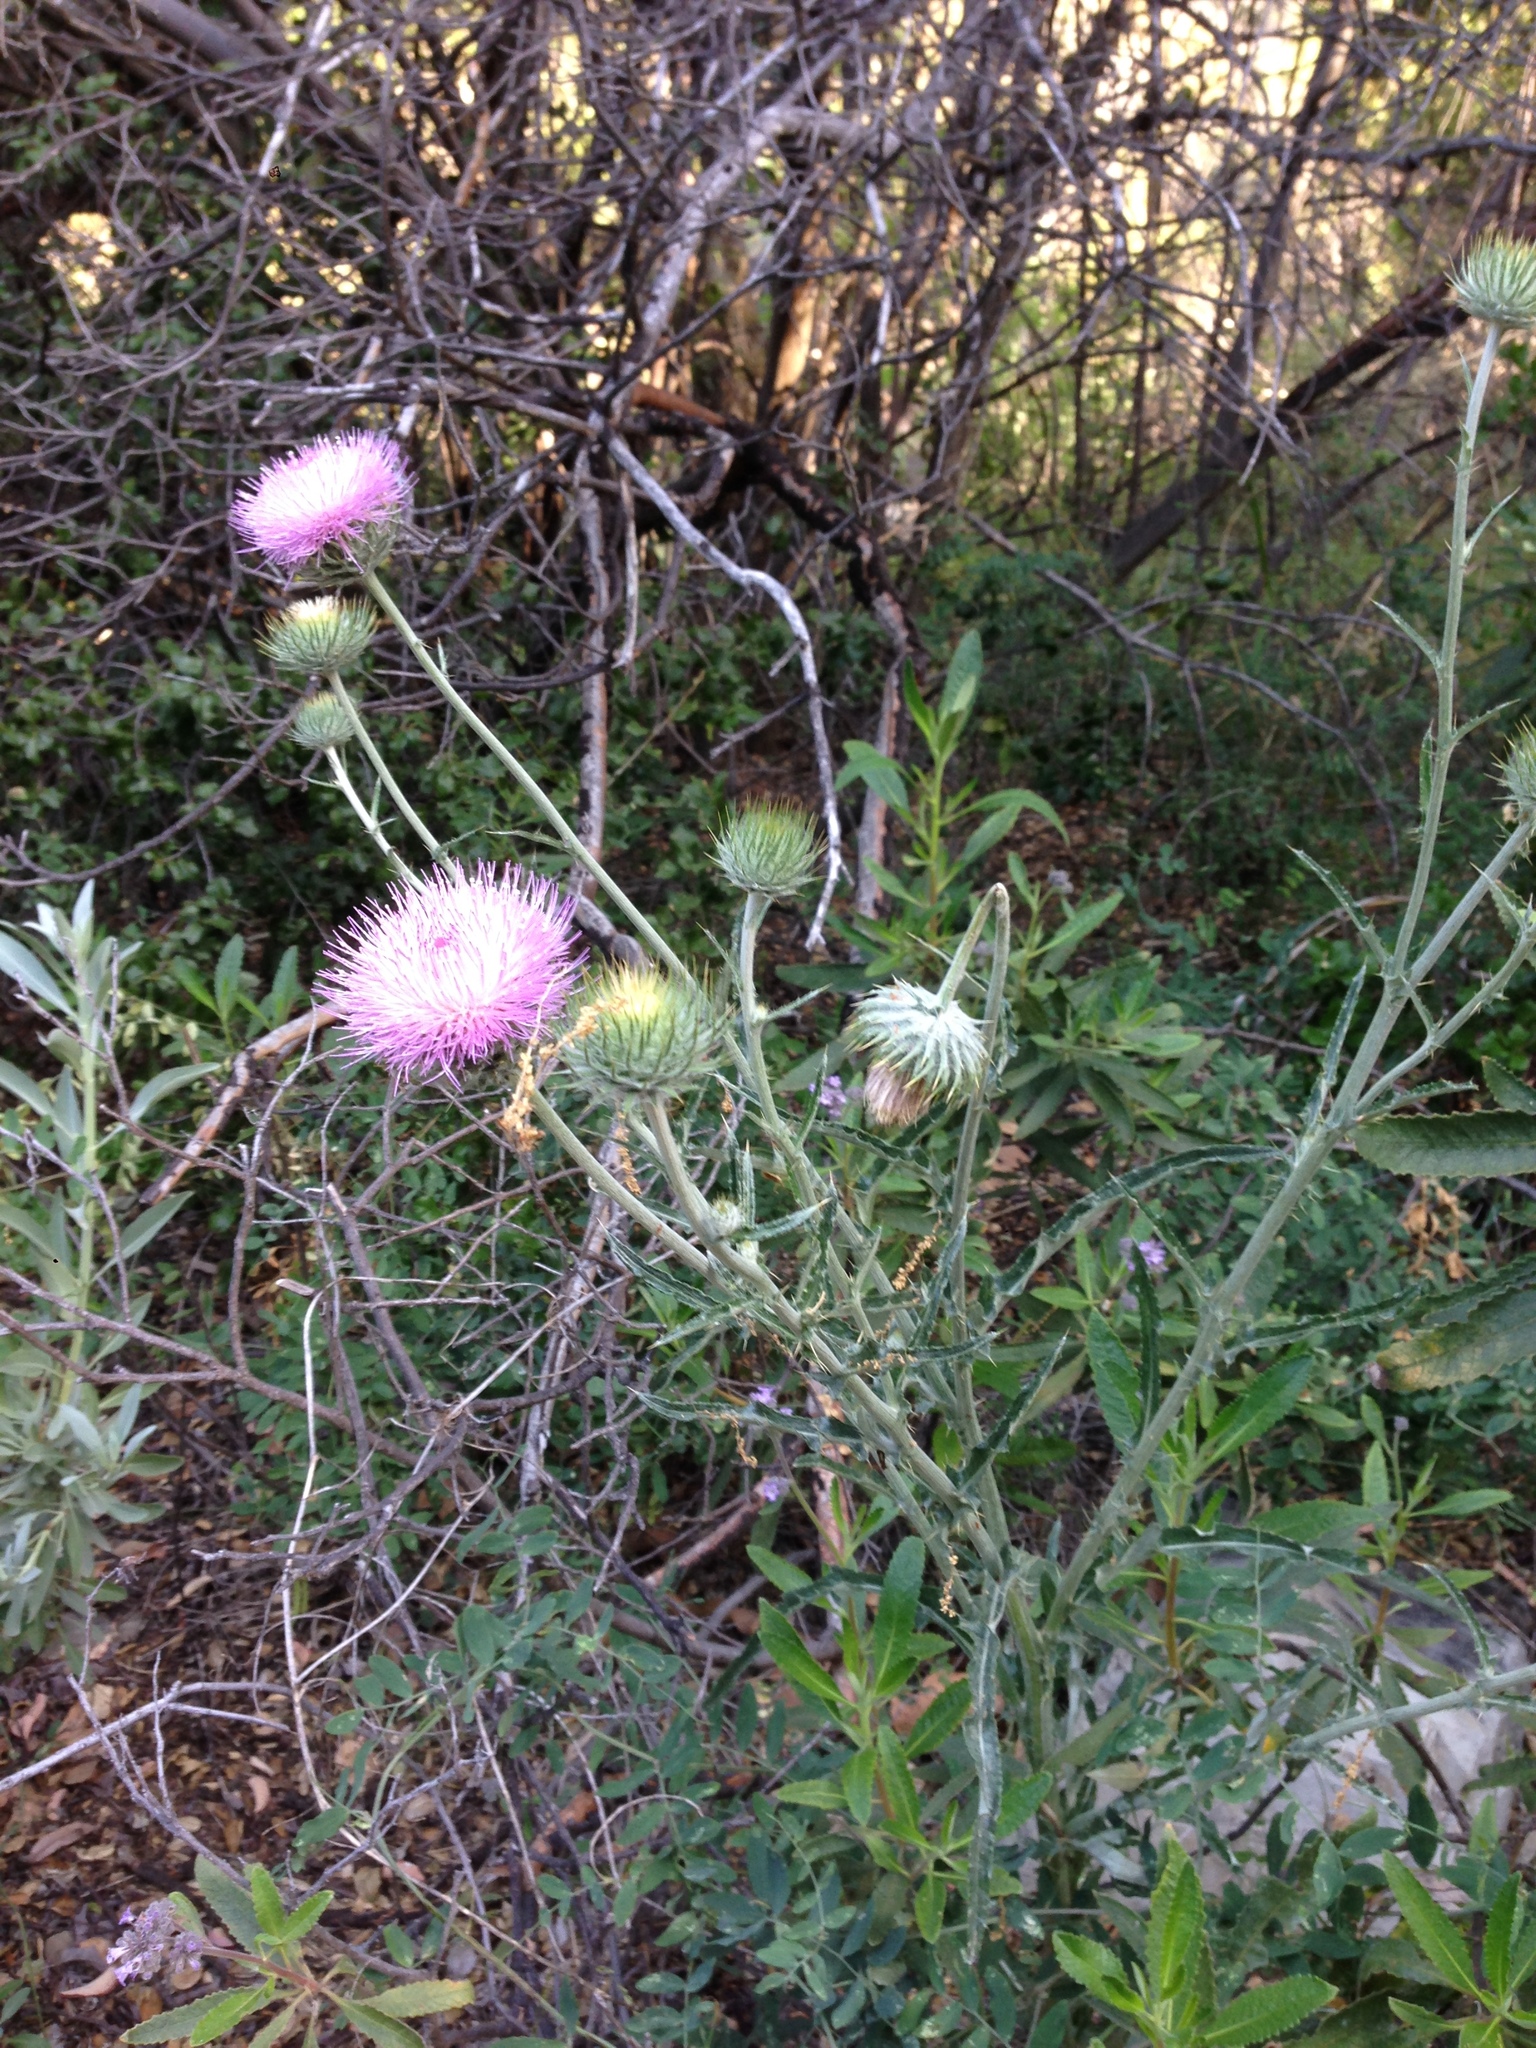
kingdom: Plantae
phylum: Tracheophyta
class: Magnoliopsida
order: Asterales
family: Asteraceae
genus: Cirsium
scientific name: Cirsium occidentale
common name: Western thistle
